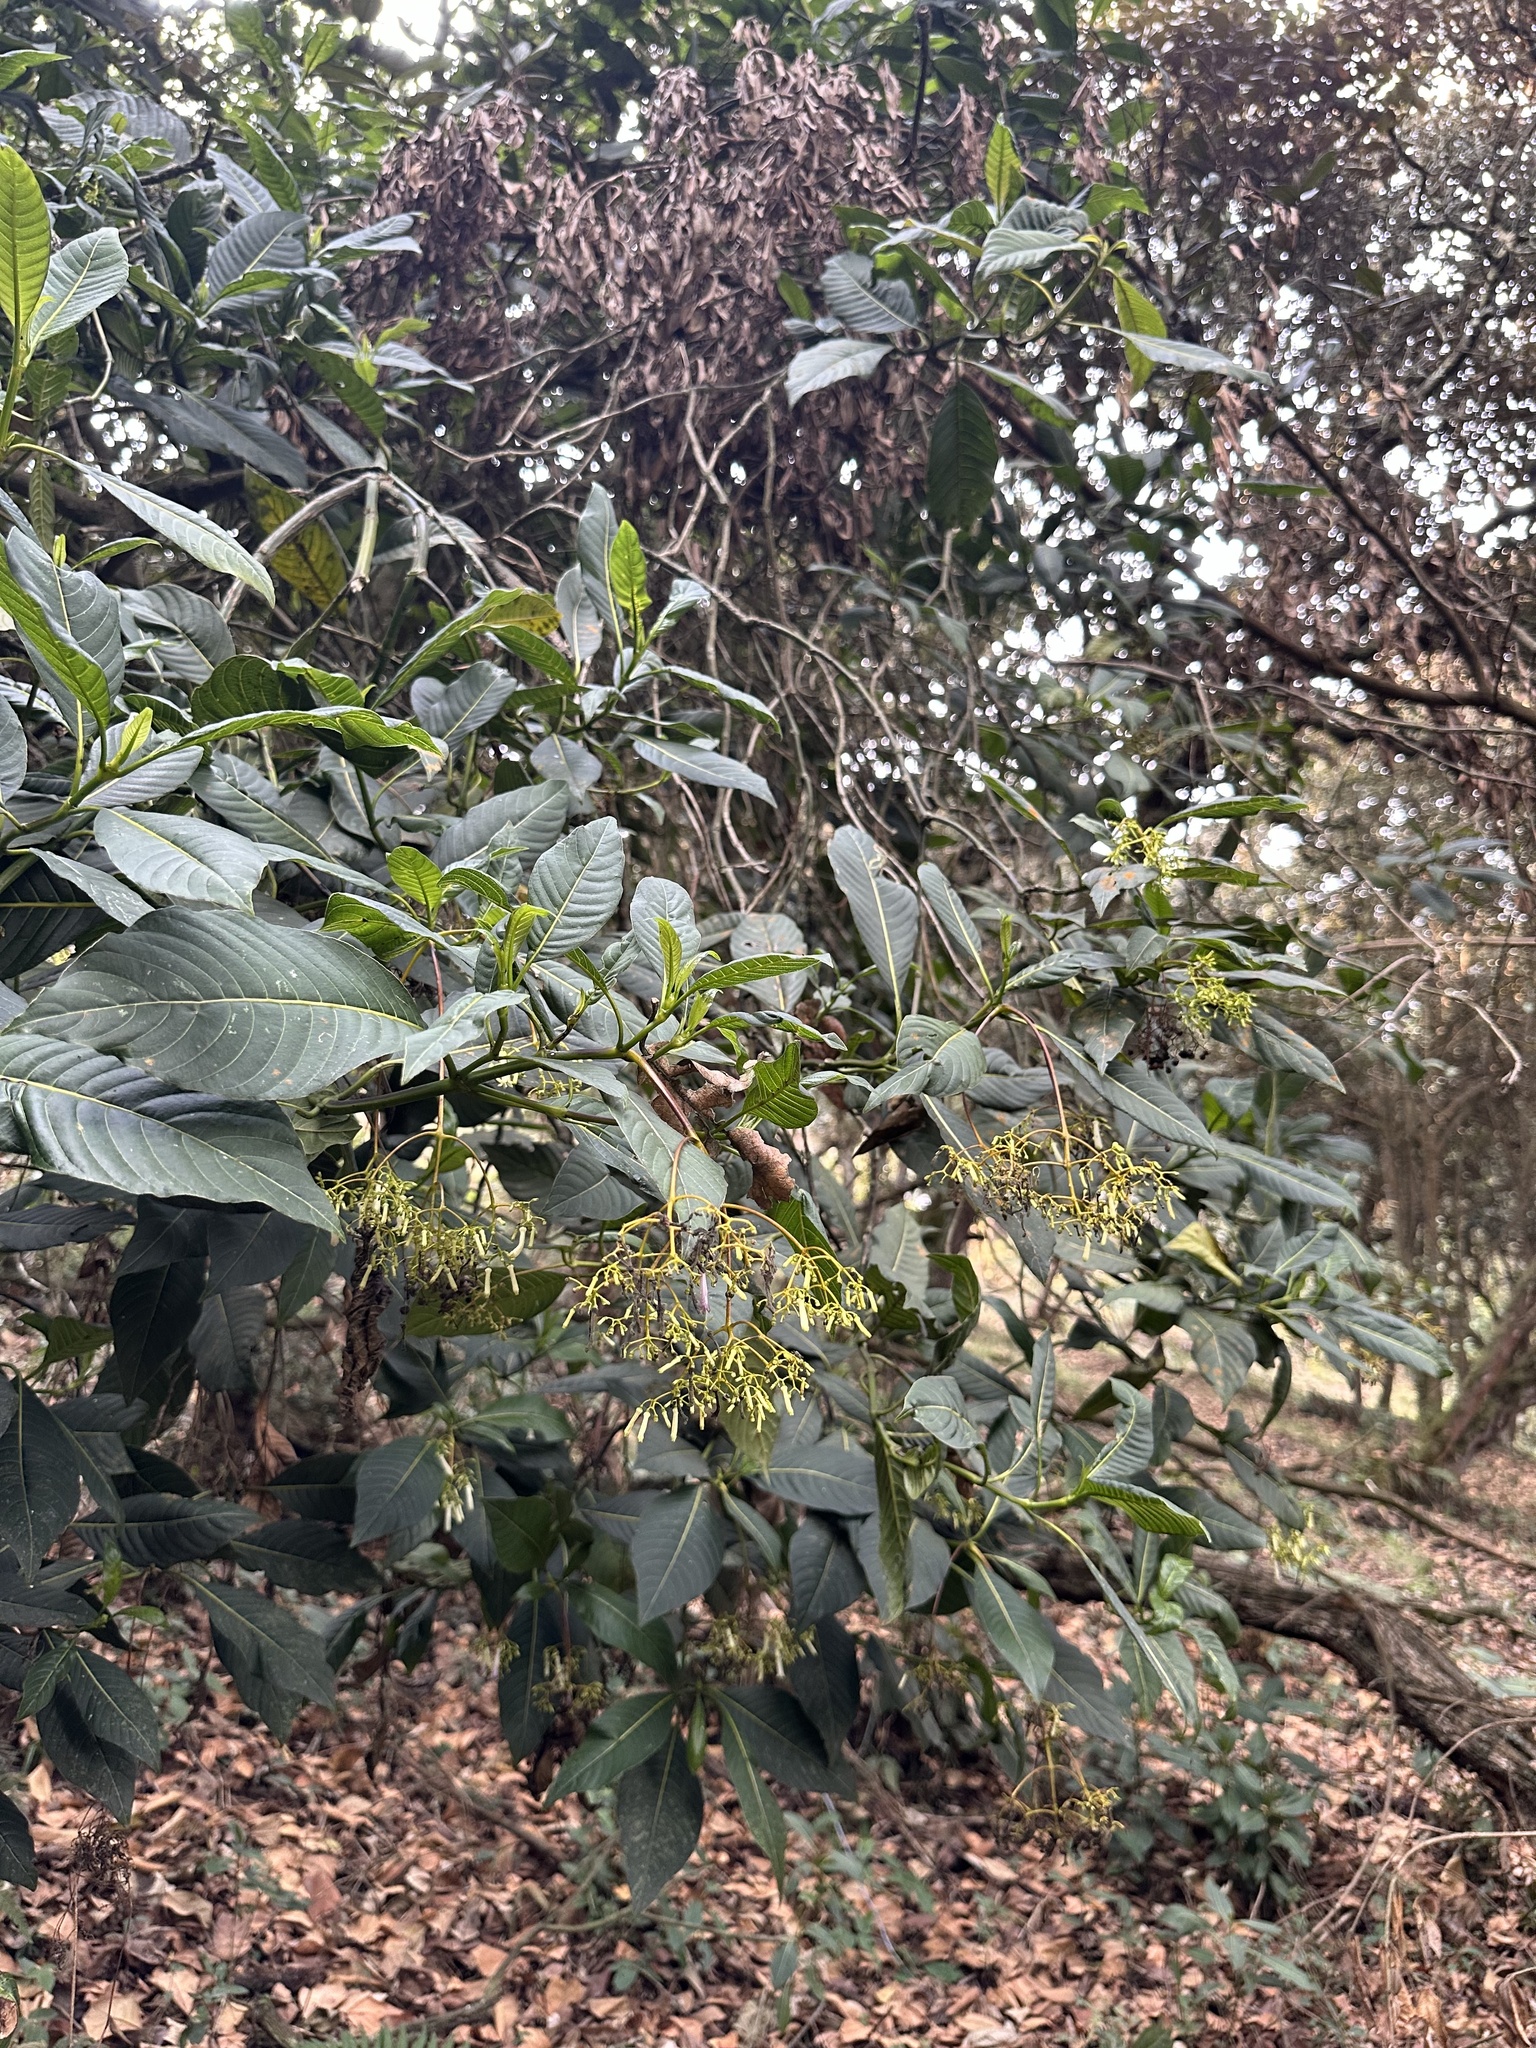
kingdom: Plantae
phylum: Tracheophyta
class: Magnoliopsida
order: Gentianales
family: Rubiaceae
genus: Palicourea
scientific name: Palicourea lineariflora
